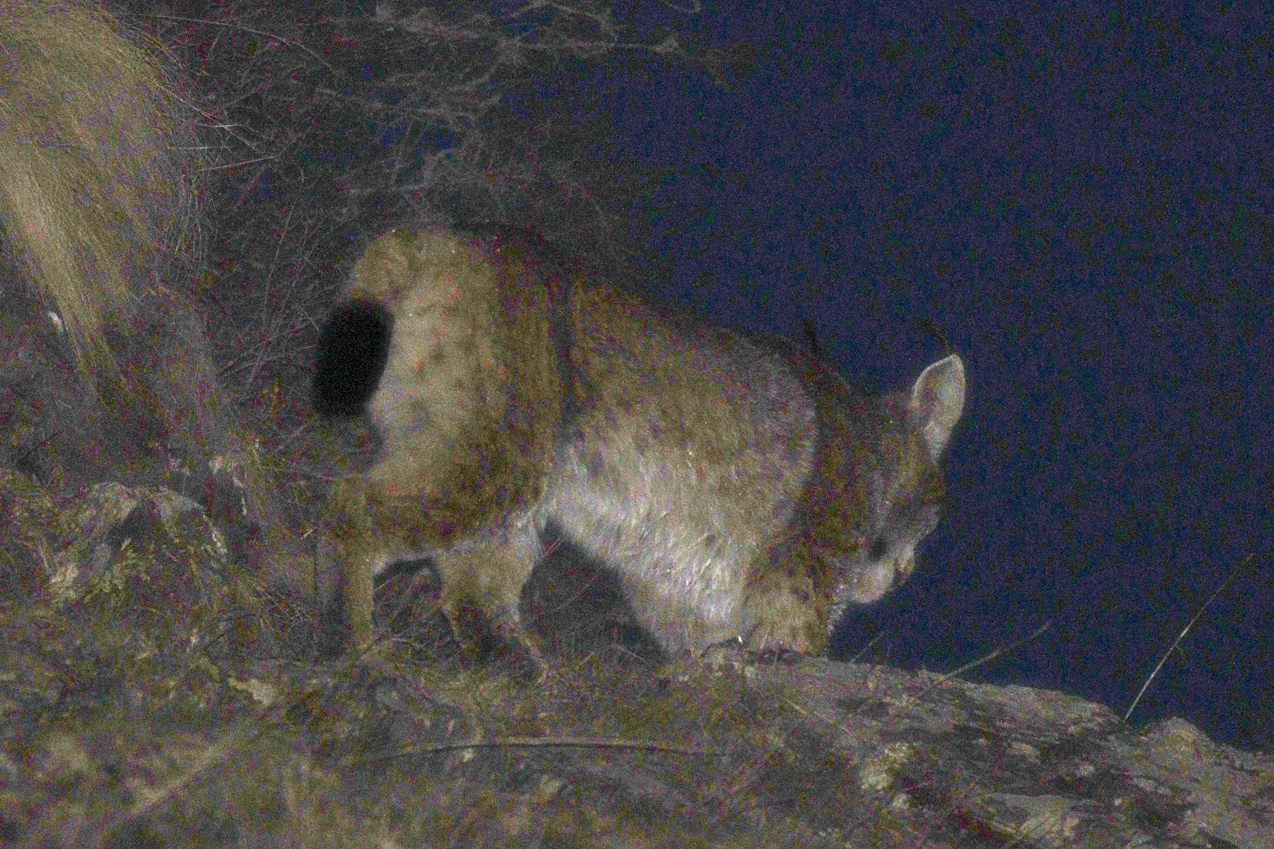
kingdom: Animalia
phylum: Chordata
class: Mammalia
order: Carnivora
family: Felidae
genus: Lynx
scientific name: Lynx lynx
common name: Eurasian lynx
